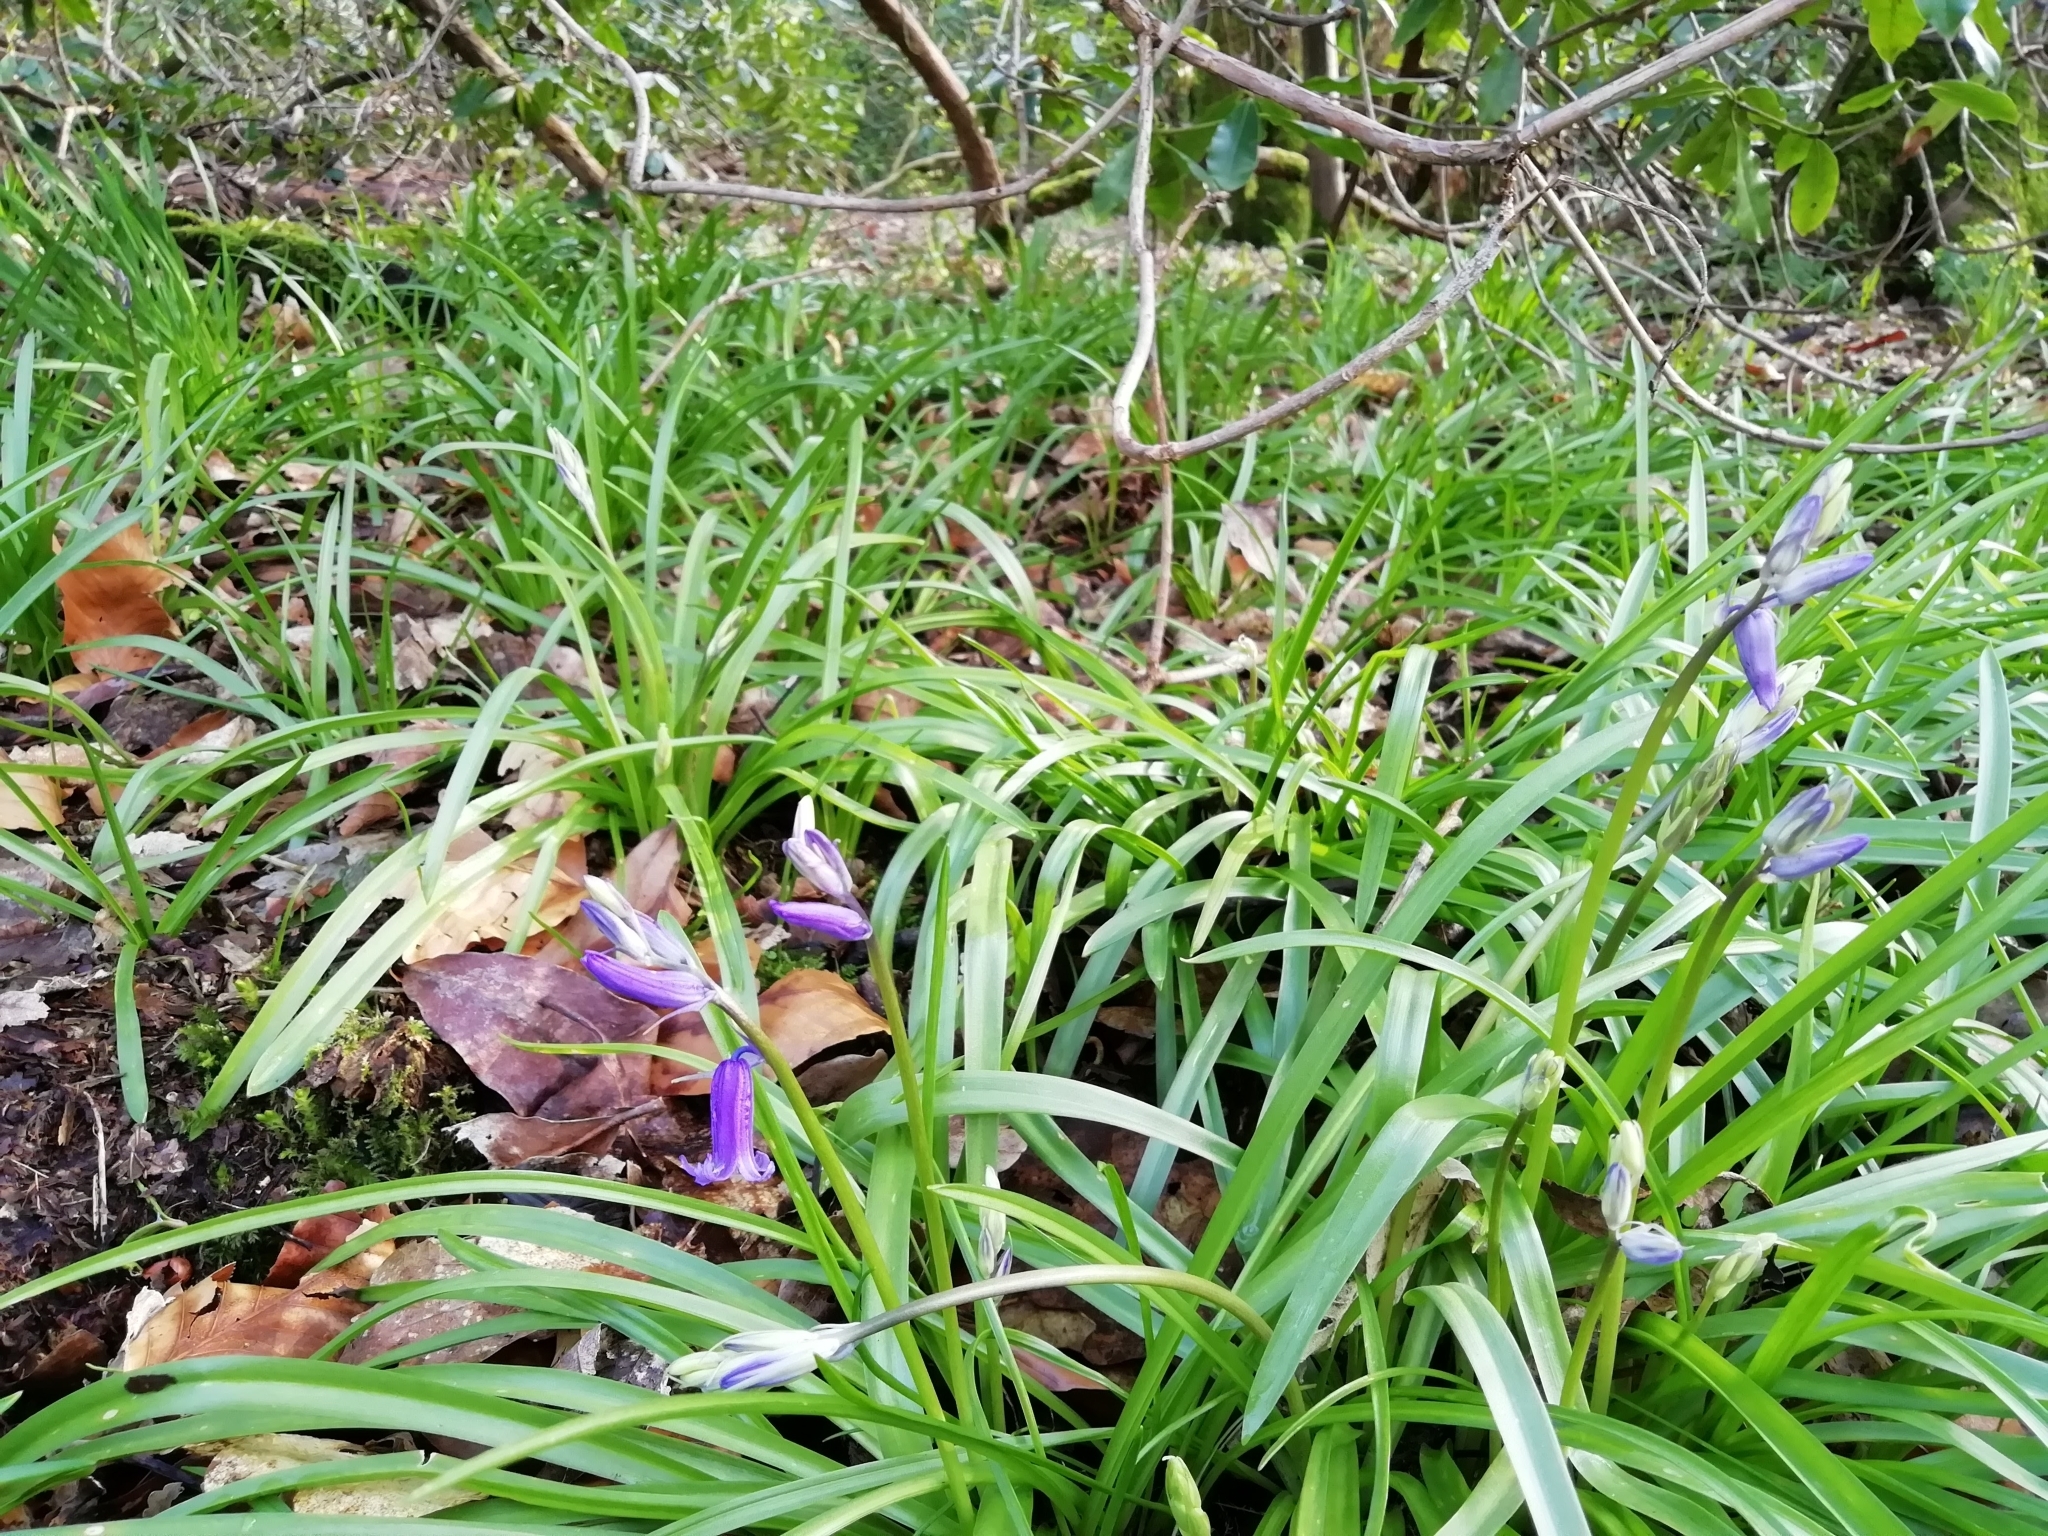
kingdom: Plantae
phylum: Tracheophyta
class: Liliopsida
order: Asparagales
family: Asparagaceae
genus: Hyacinthoides
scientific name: Hyacinthoides non-scripta
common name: Bluebell
